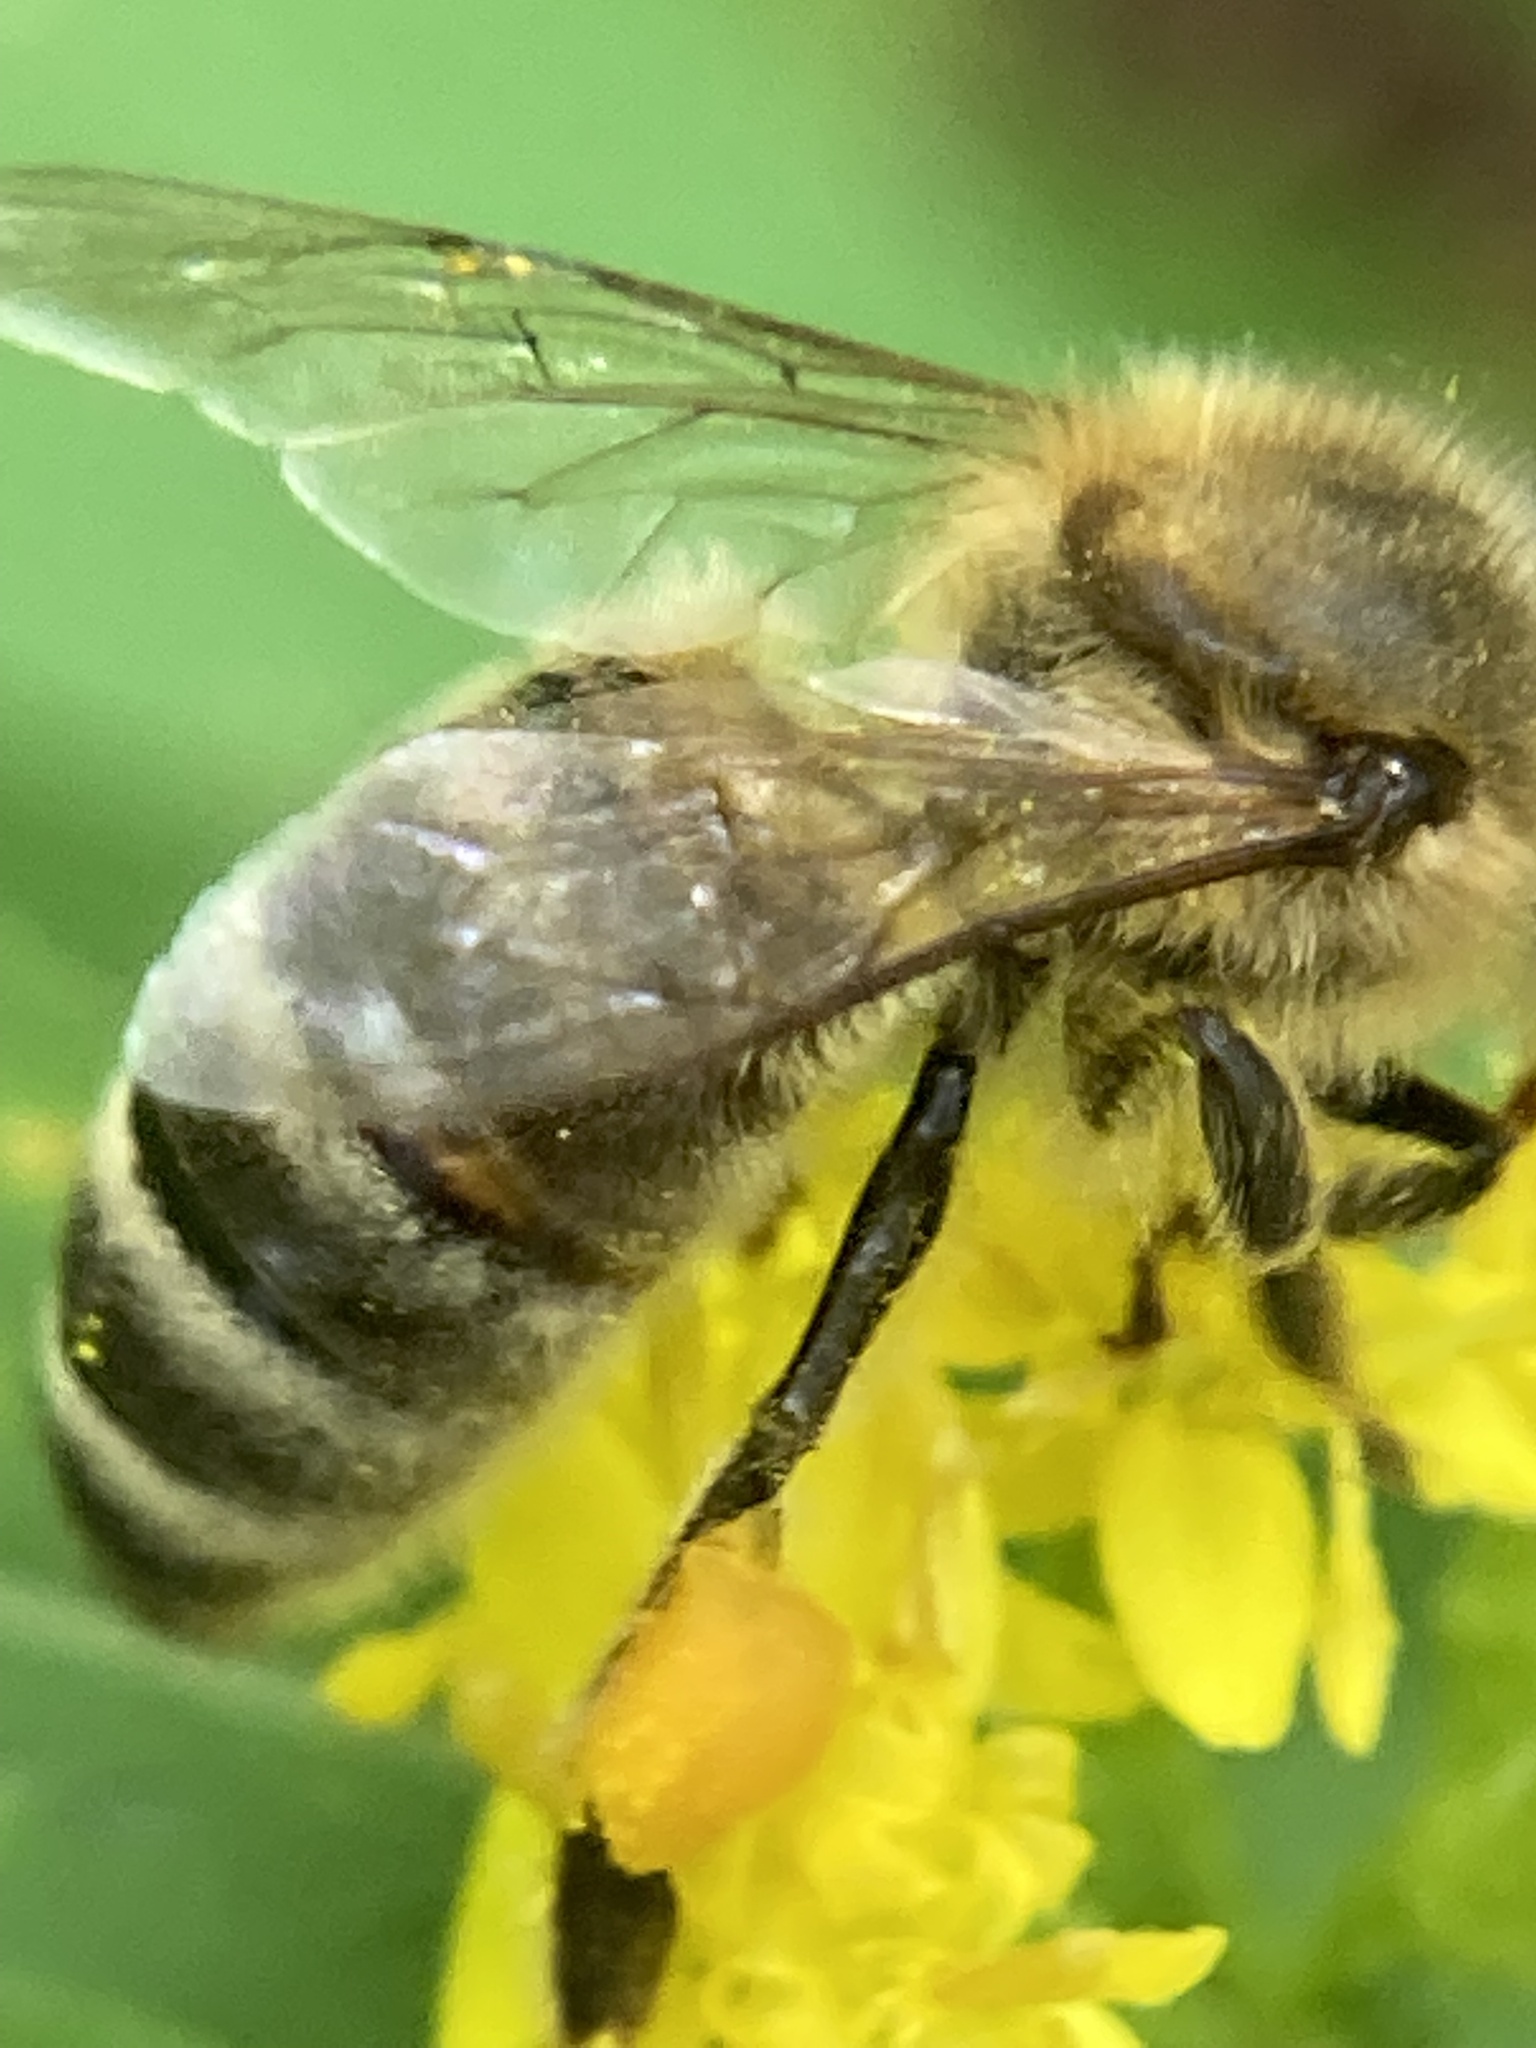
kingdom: Animalia
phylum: Arthropoda
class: Insecta
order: Hymenoptera
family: Apidae
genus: Apis
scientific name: Apis mellifera
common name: Honey bee
